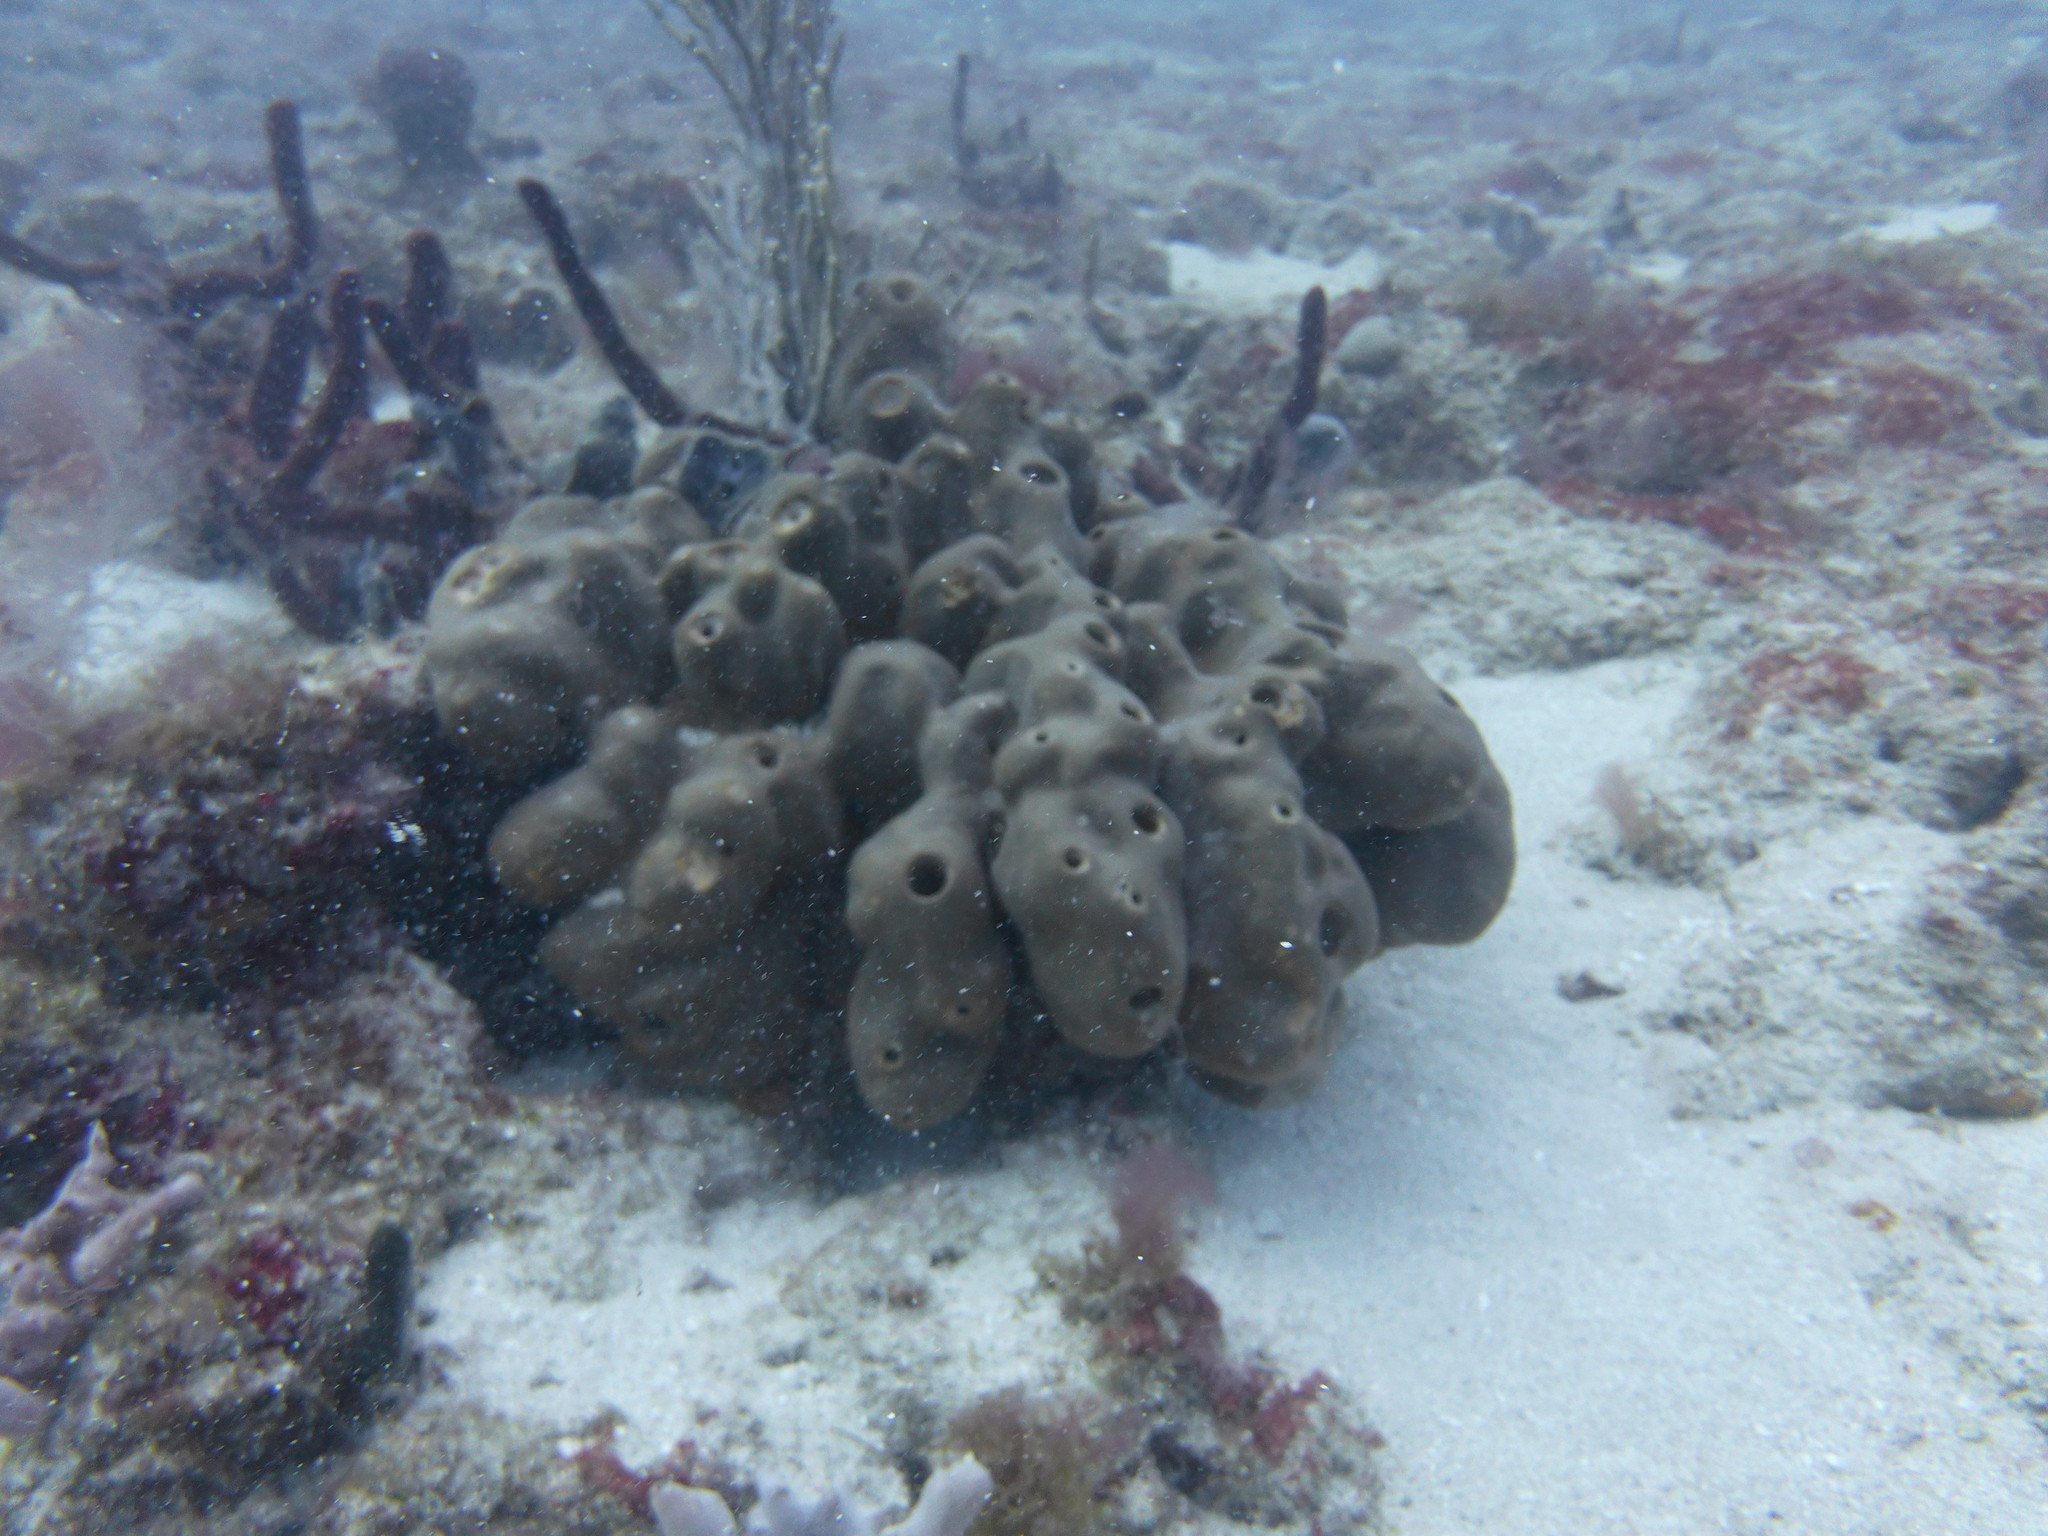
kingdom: Animalia
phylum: Porifera
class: Demospongiae
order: Agelasida
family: Agelasidae
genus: Agelas
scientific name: Agelas conifera
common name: Brown tube sponge
